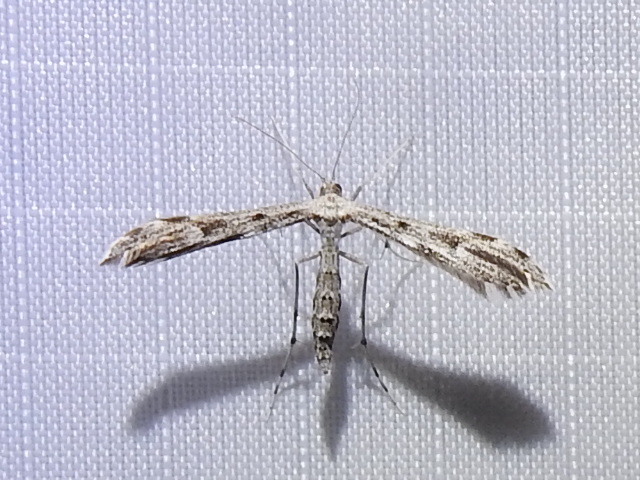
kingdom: Animalia
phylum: Arthropoda
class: Insecta
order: Lepidoptera
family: Pterophoridae
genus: Hellinsia
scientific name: Hellinsia inquinatus
